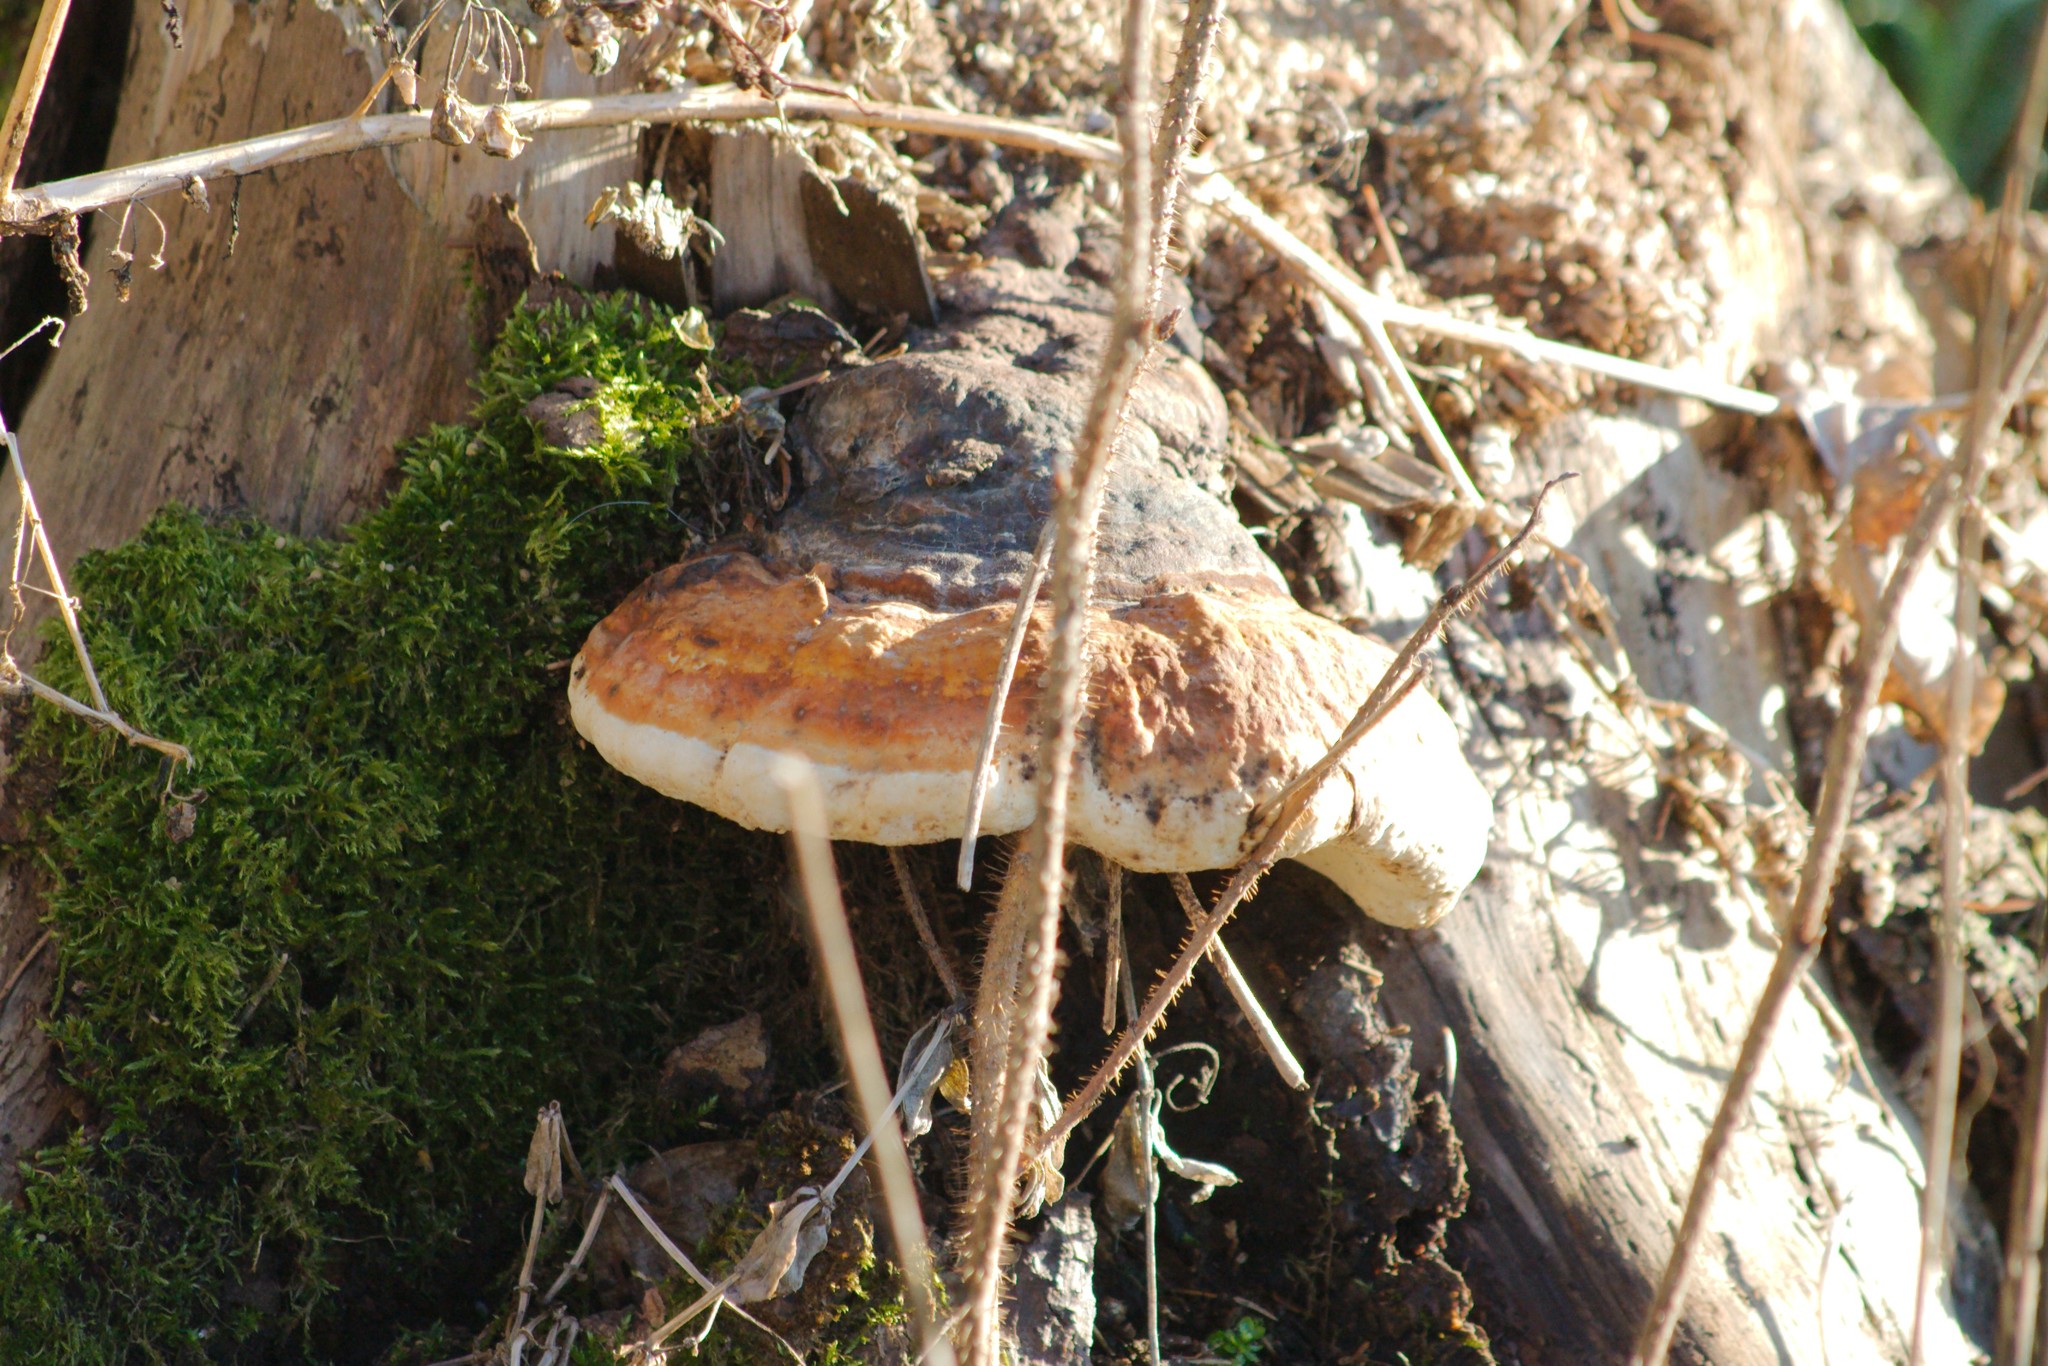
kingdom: Fungi
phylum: Basidiomycota
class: Agaricomycetes
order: Polyporales
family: Fomitopsidaceae
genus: Fomitopsis
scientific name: Fomitopsis pinicola
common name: Red-belted bracket
